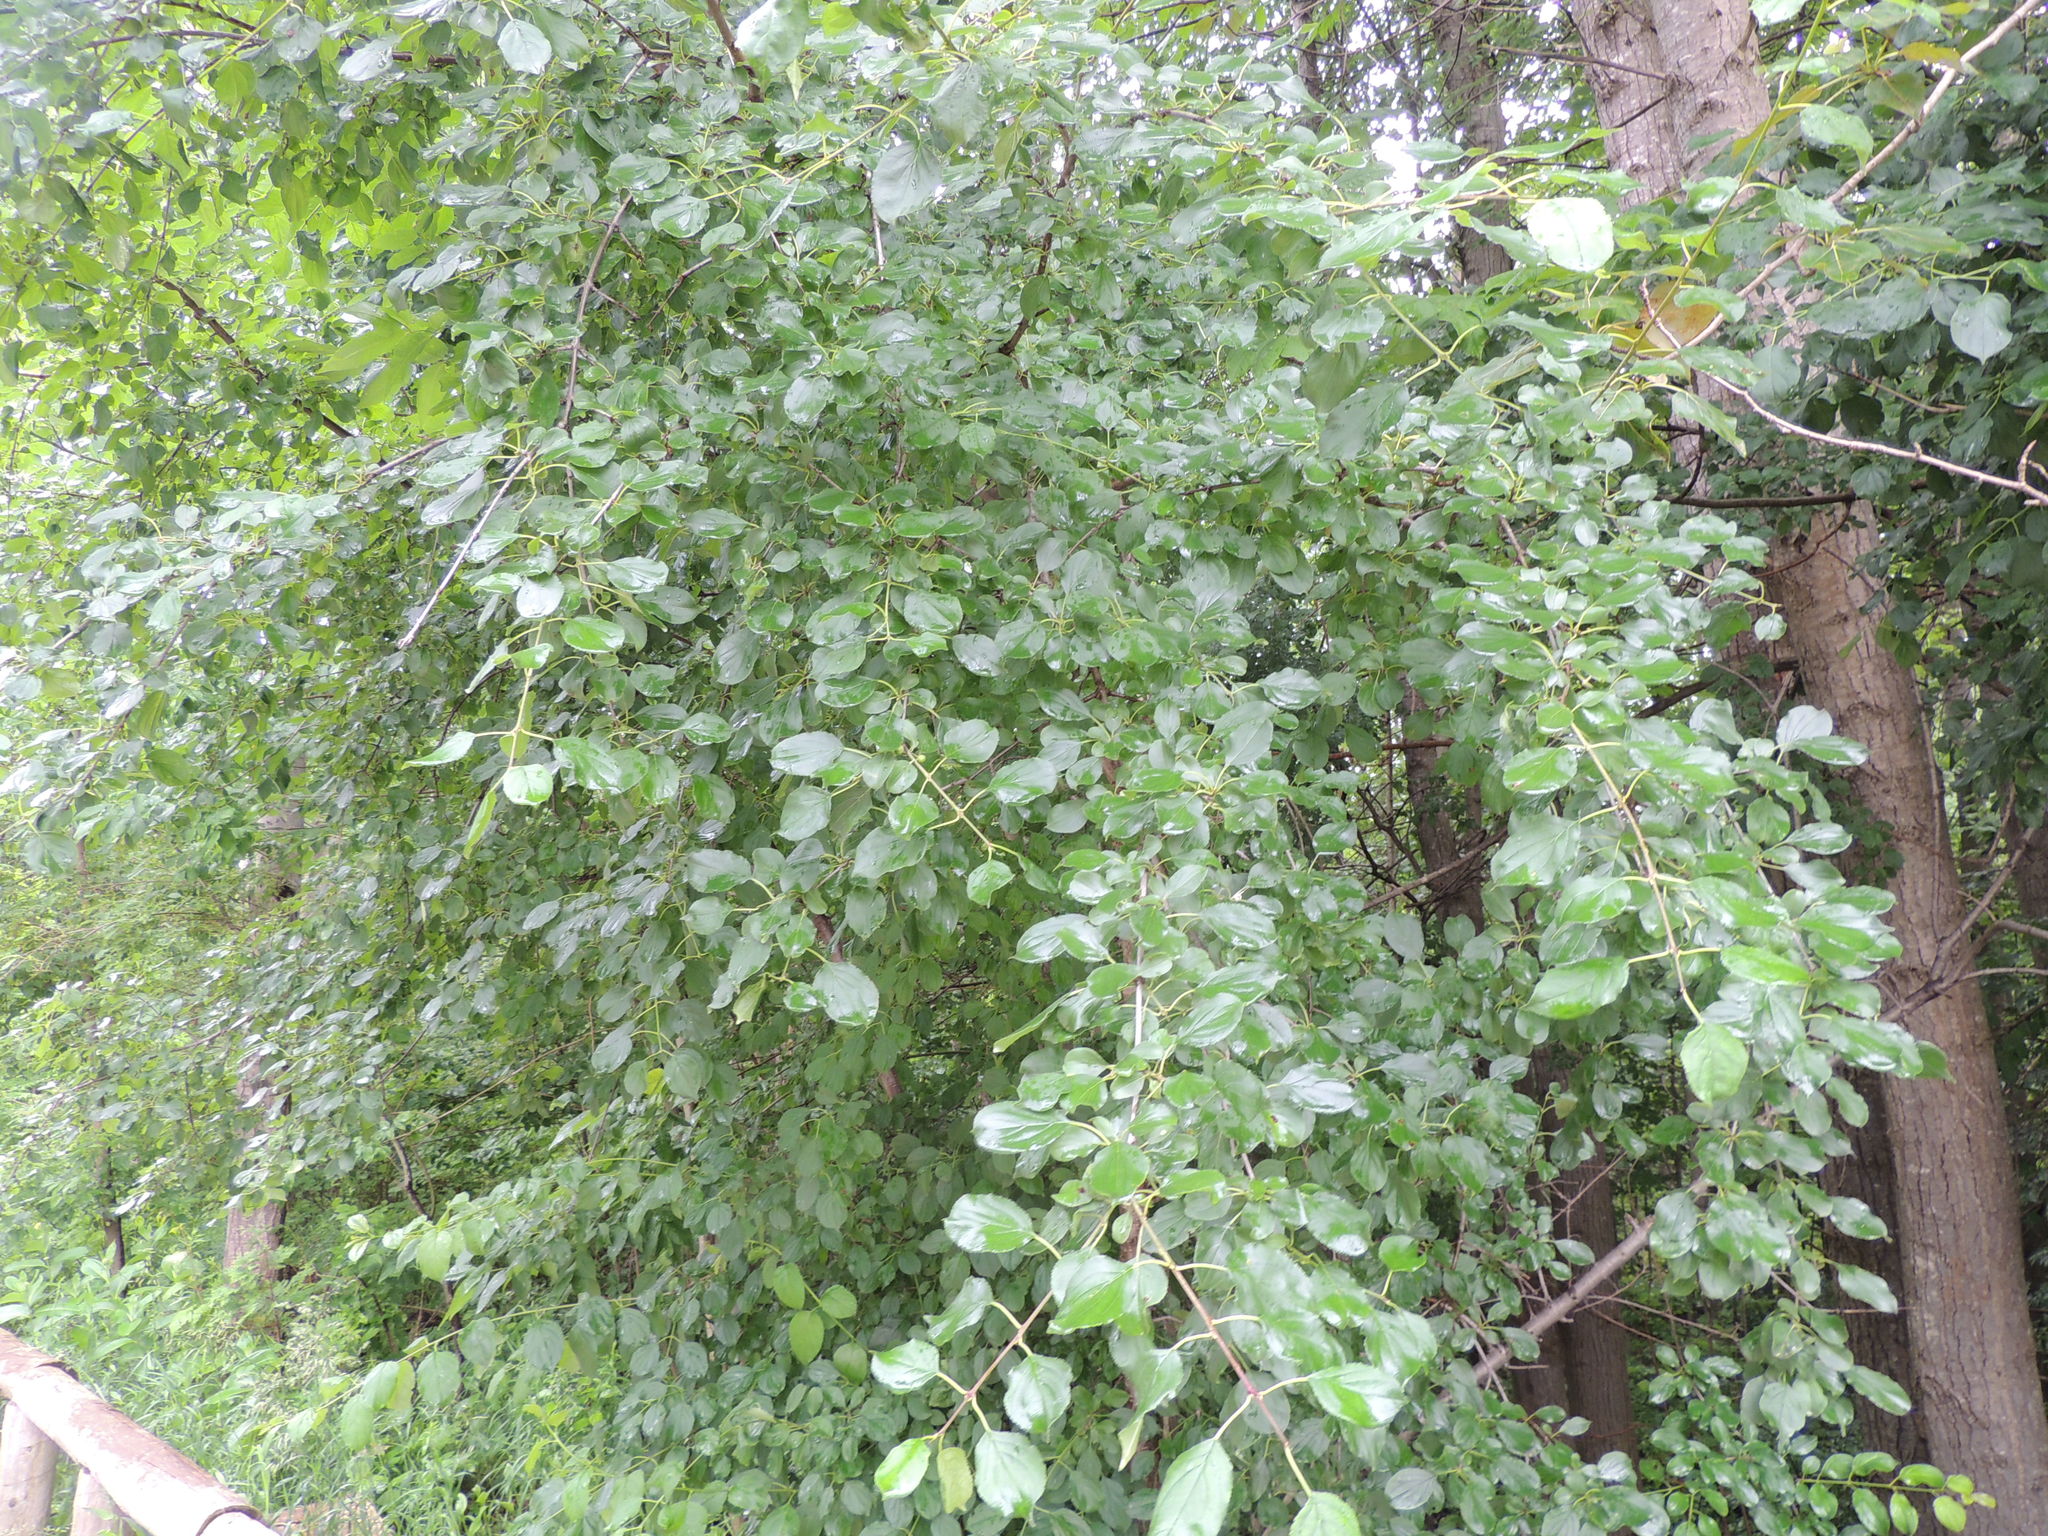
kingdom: Plantae
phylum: Tracheophyta
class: Magnoliopsida
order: Rosales
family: Rhamnaceae
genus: Rhamnus
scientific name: Rhamnus cathartica
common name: Common buckthorn
